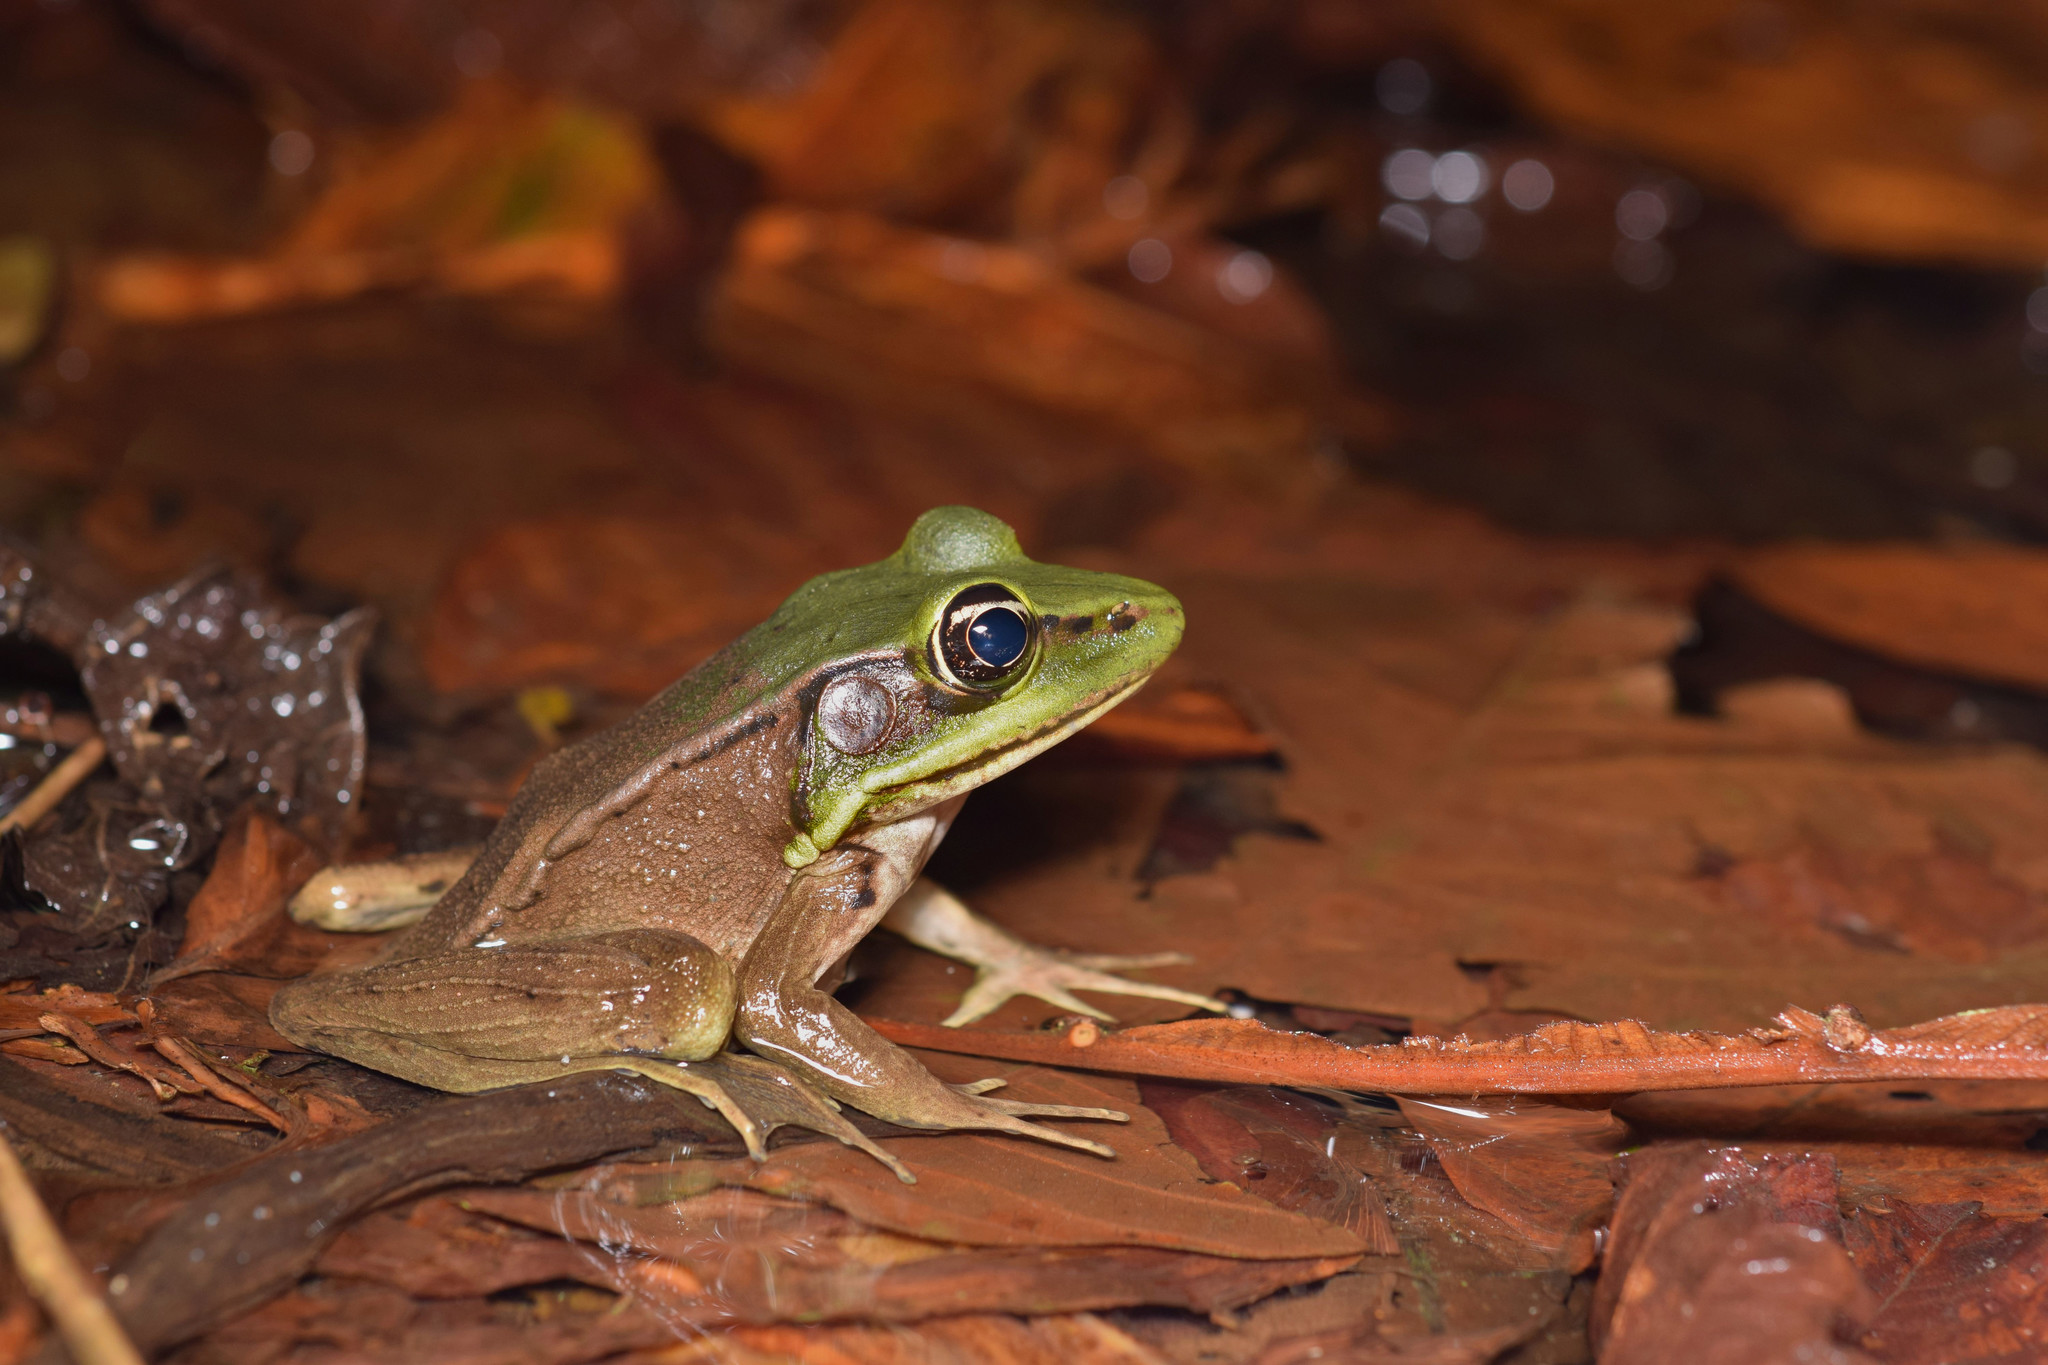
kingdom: Animalia
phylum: Chordata
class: Amphibia
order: Anura
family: Ranidae
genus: Lithobates
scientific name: Lithobates vaillanti
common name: Vaillant's frog
